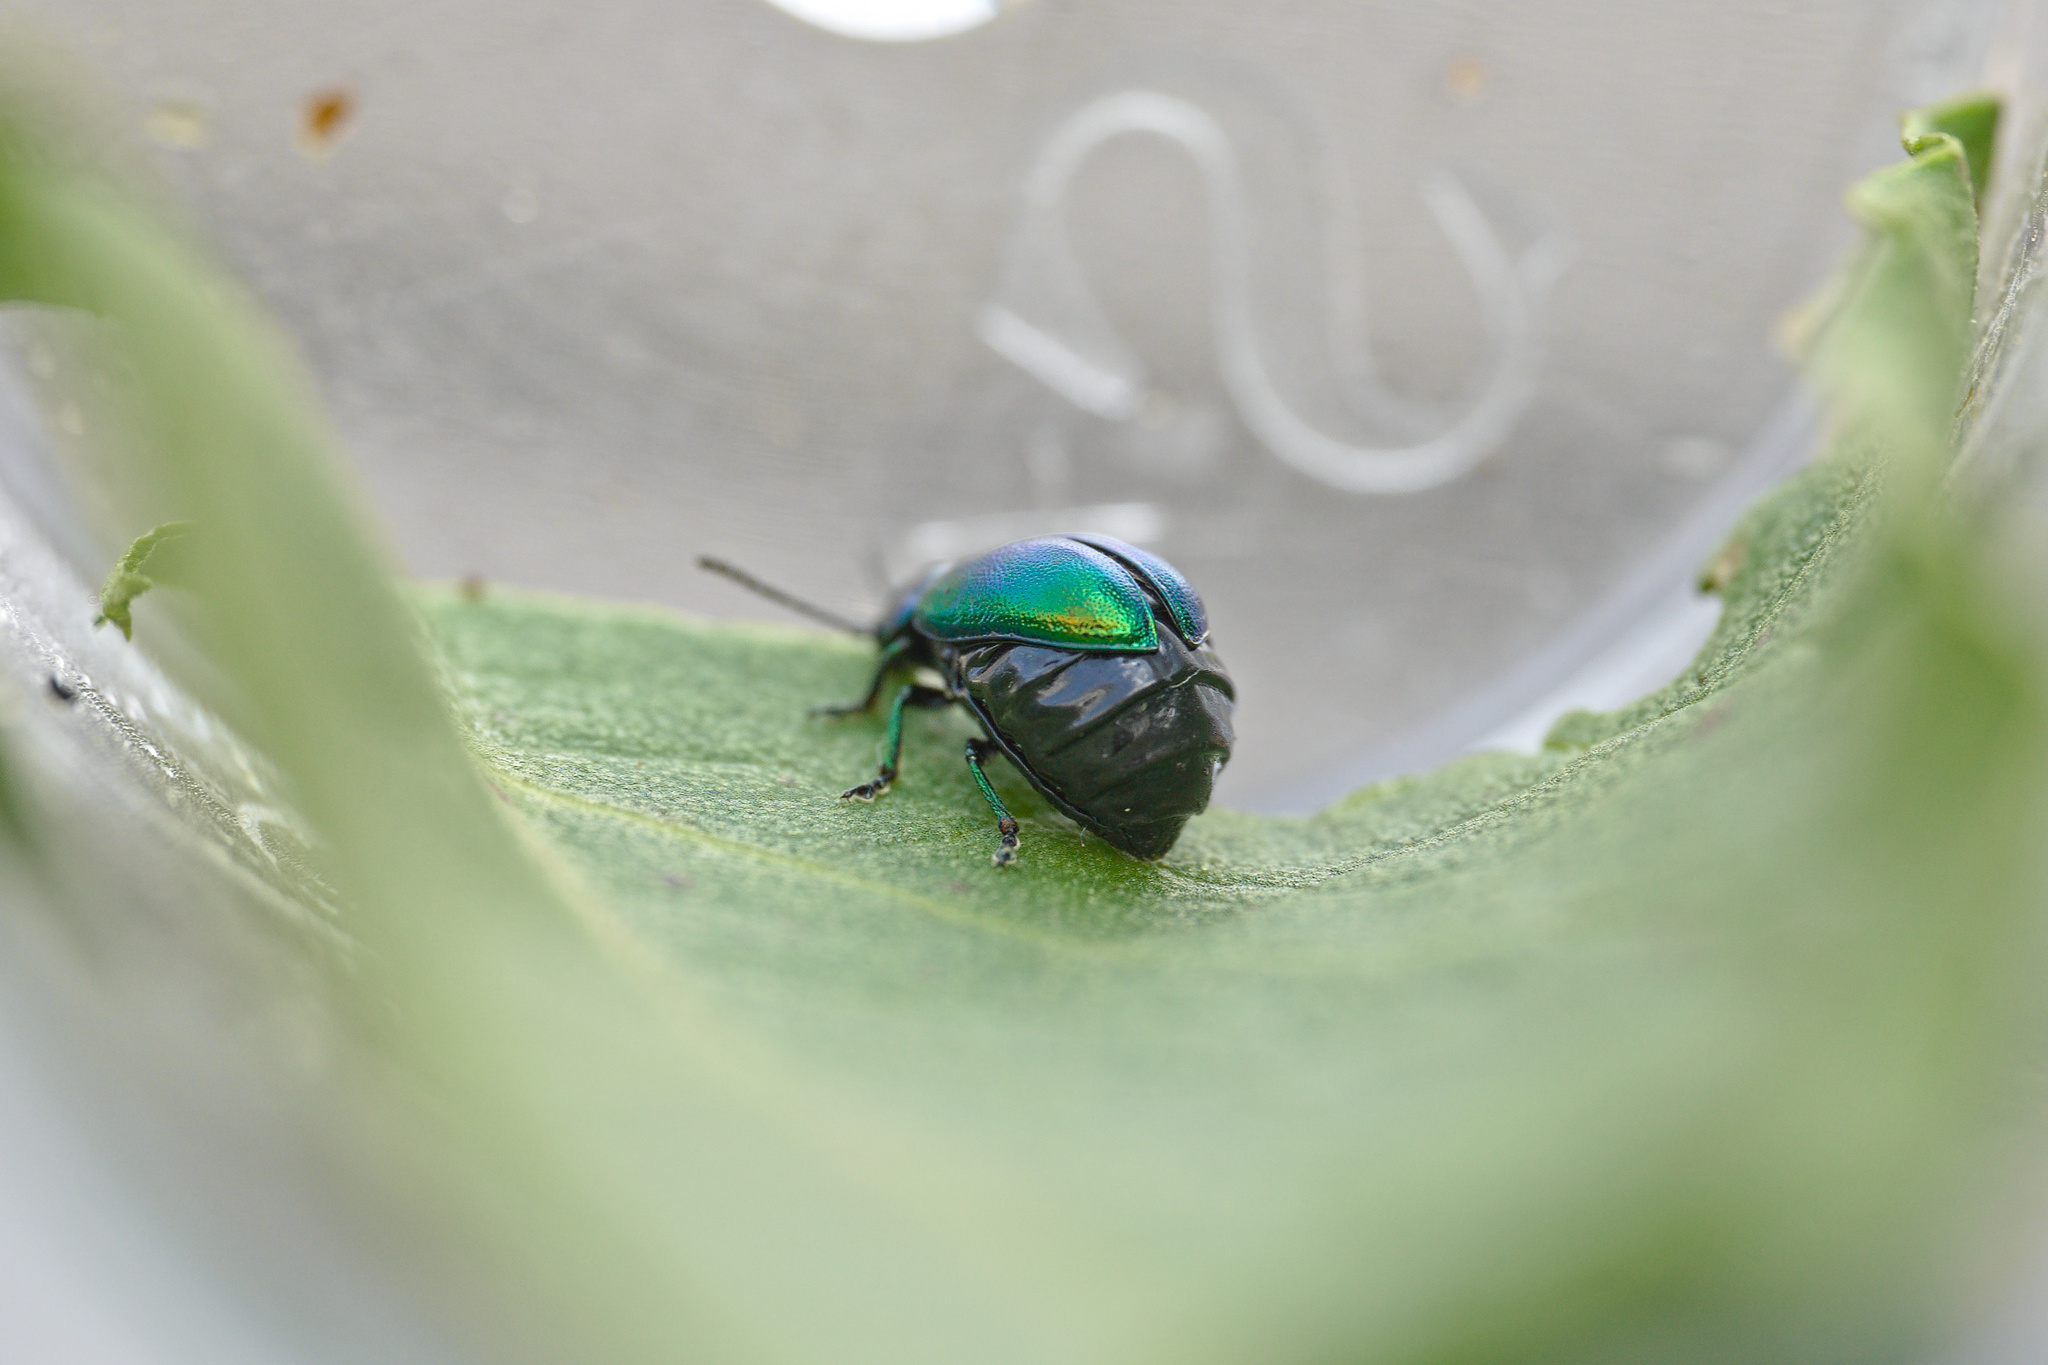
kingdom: Animalia
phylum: Arthropoda
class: Insecta
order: Coleoptera
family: Chrysomelidae
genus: Gastrophysa
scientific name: Gastrophysa viridula
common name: Green dock beetle
